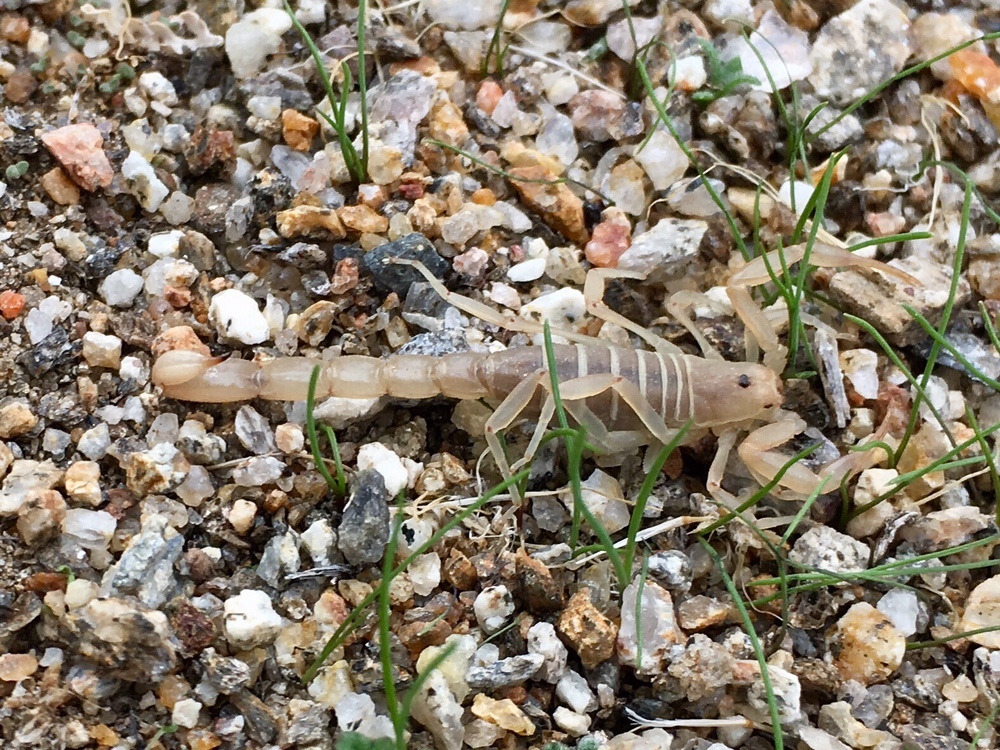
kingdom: Animalia
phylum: Arthropoda
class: Arachnida
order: Scorpiones
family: Vaejovidae
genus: Paravaejovis
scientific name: Paravaejovis waeringi
